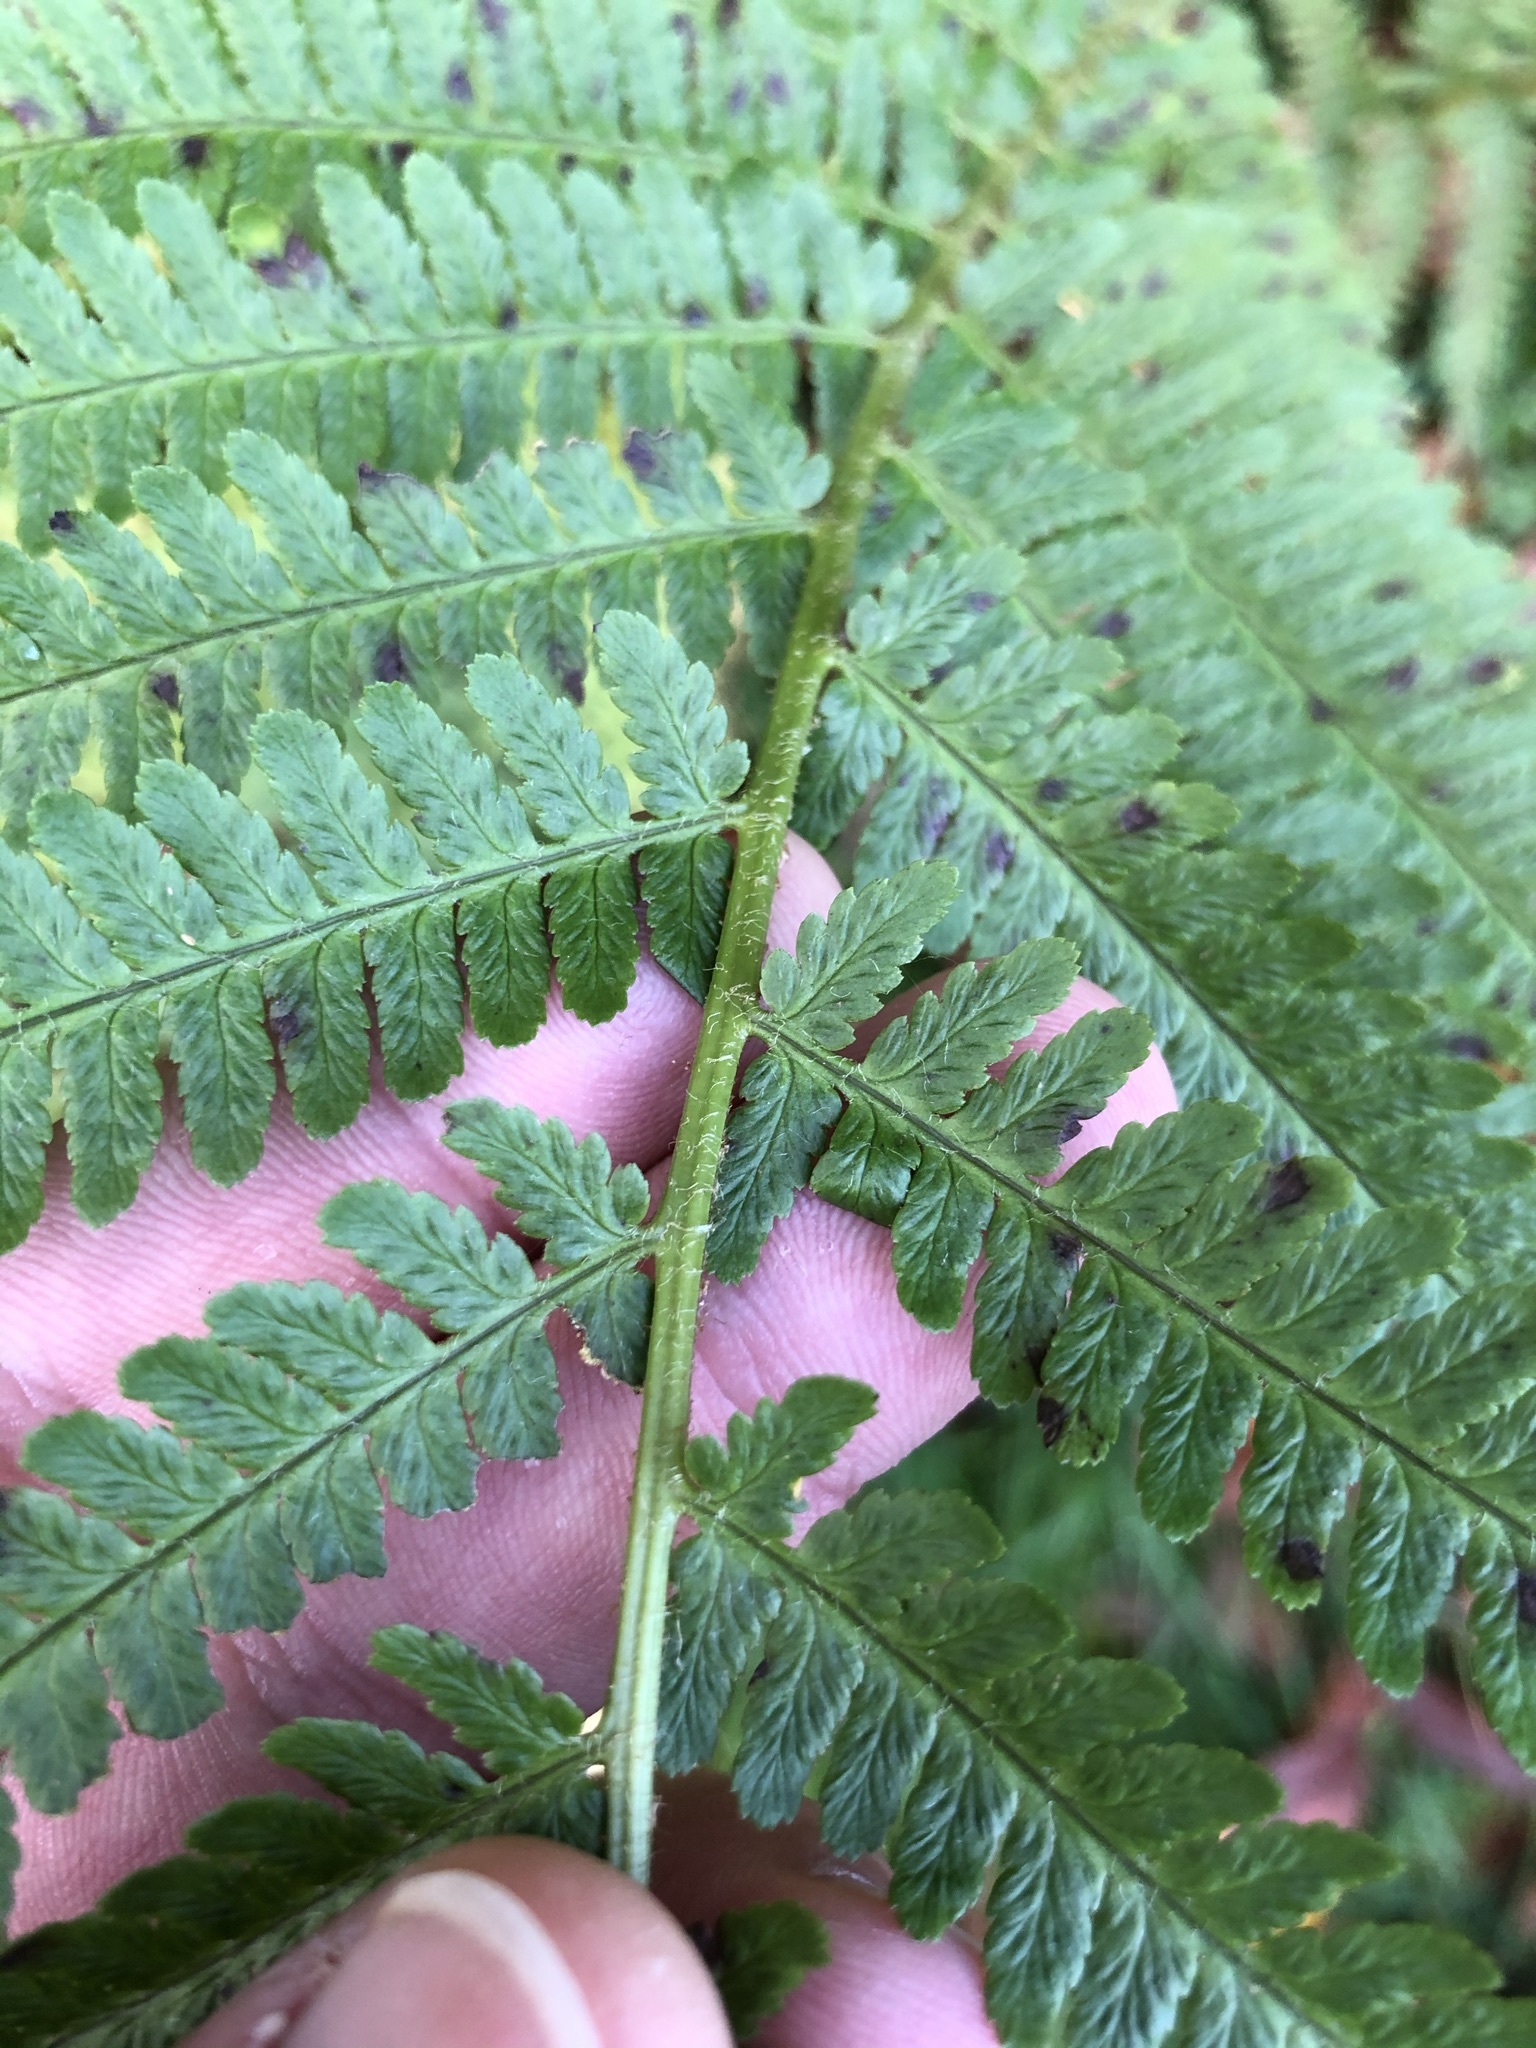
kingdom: Plantae
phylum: Tracheophyta
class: Polypodiopsida
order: Polypodiales
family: Dryopteridaceae
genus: Dryopteris
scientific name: Dryopteris filix-mas
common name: Male fern
